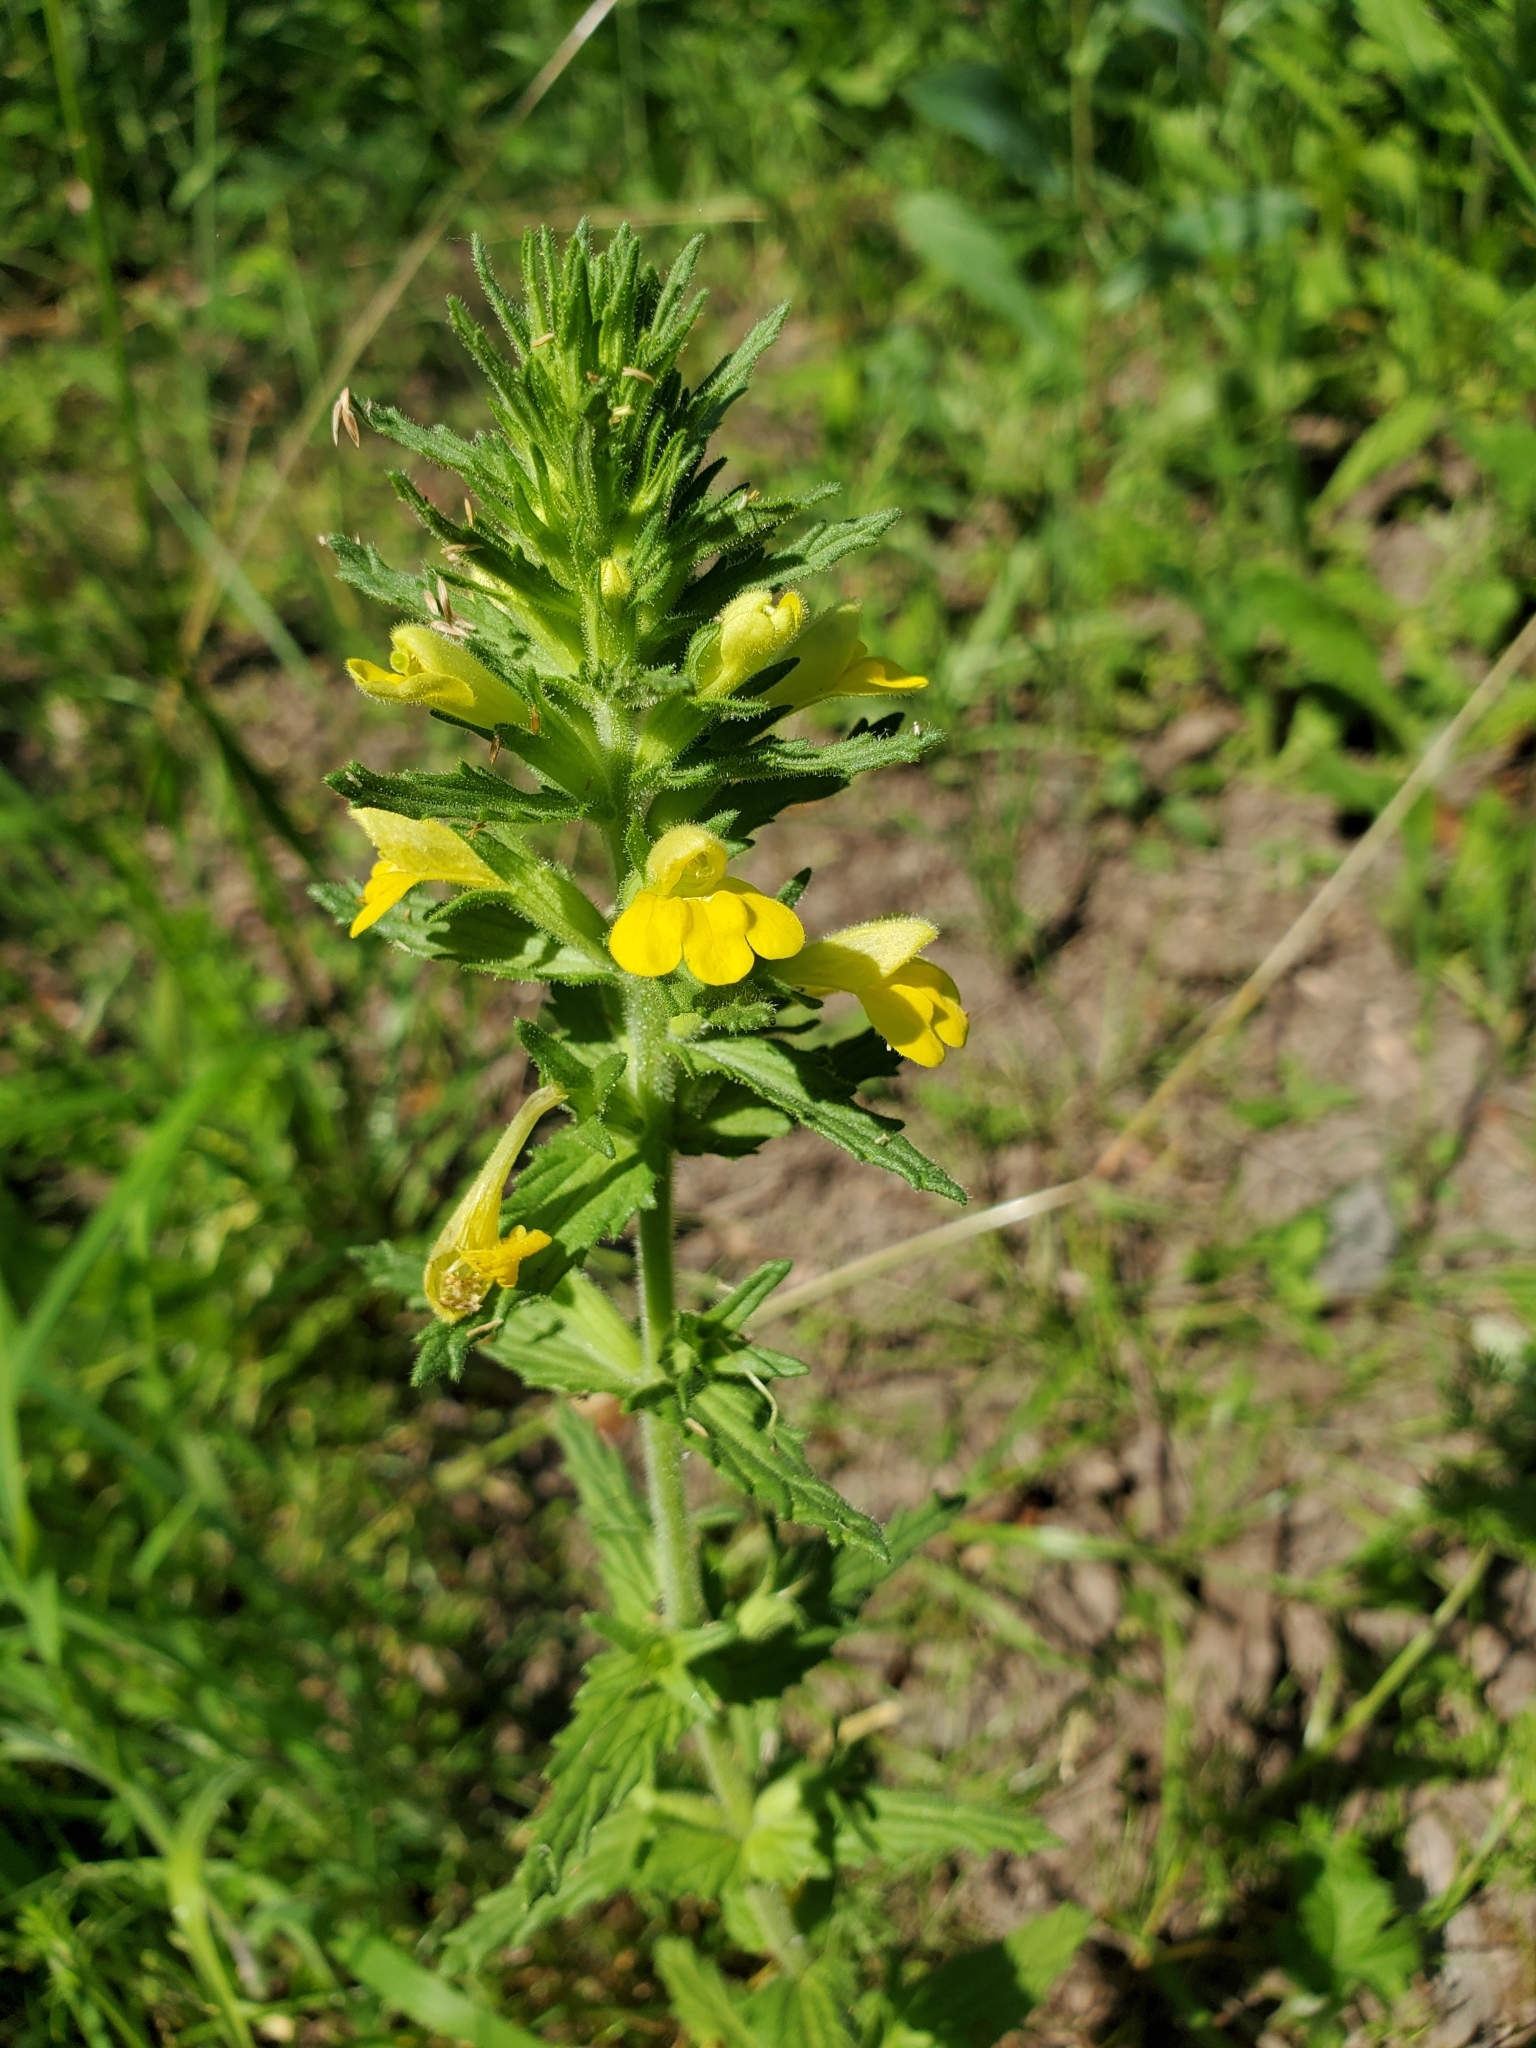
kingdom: Plantae
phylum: Tracheophyta
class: Magnoliopsida
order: Lamiales
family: Orobanchaceae
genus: Bellardia
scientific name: Bellardia viscosa
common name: Sticky parentucellia
